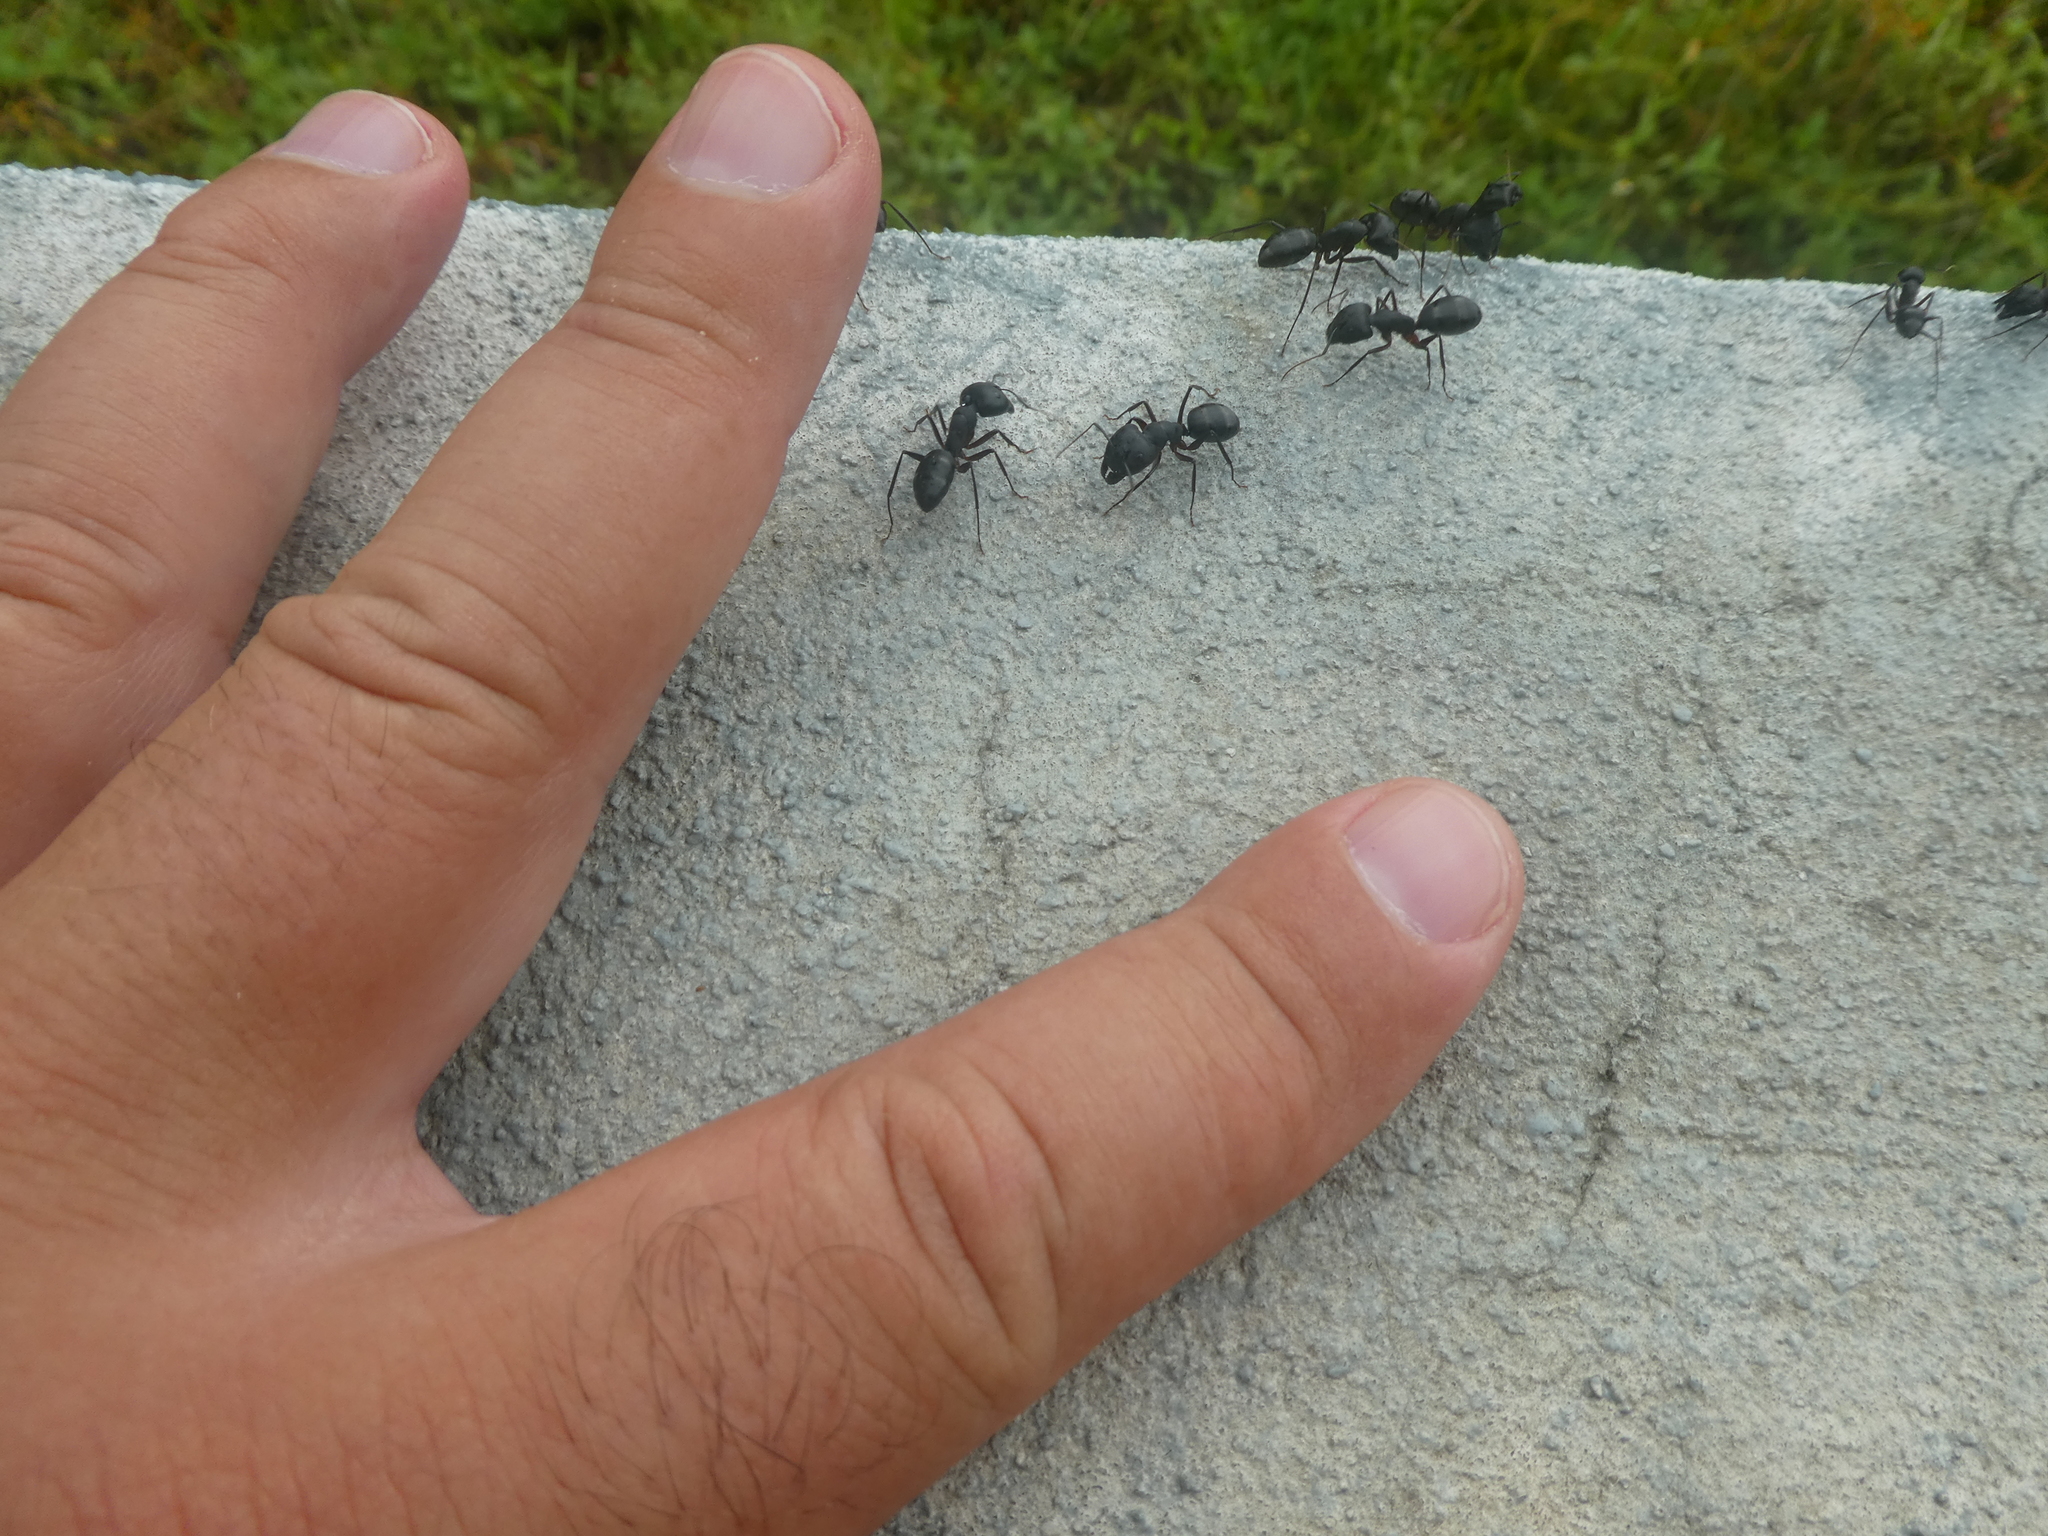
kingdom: Animalia
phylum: Arthropoda
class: Insecta
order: Hymenoptera
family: Formicidae
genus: Camponotus
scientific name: Camponotus compressus
